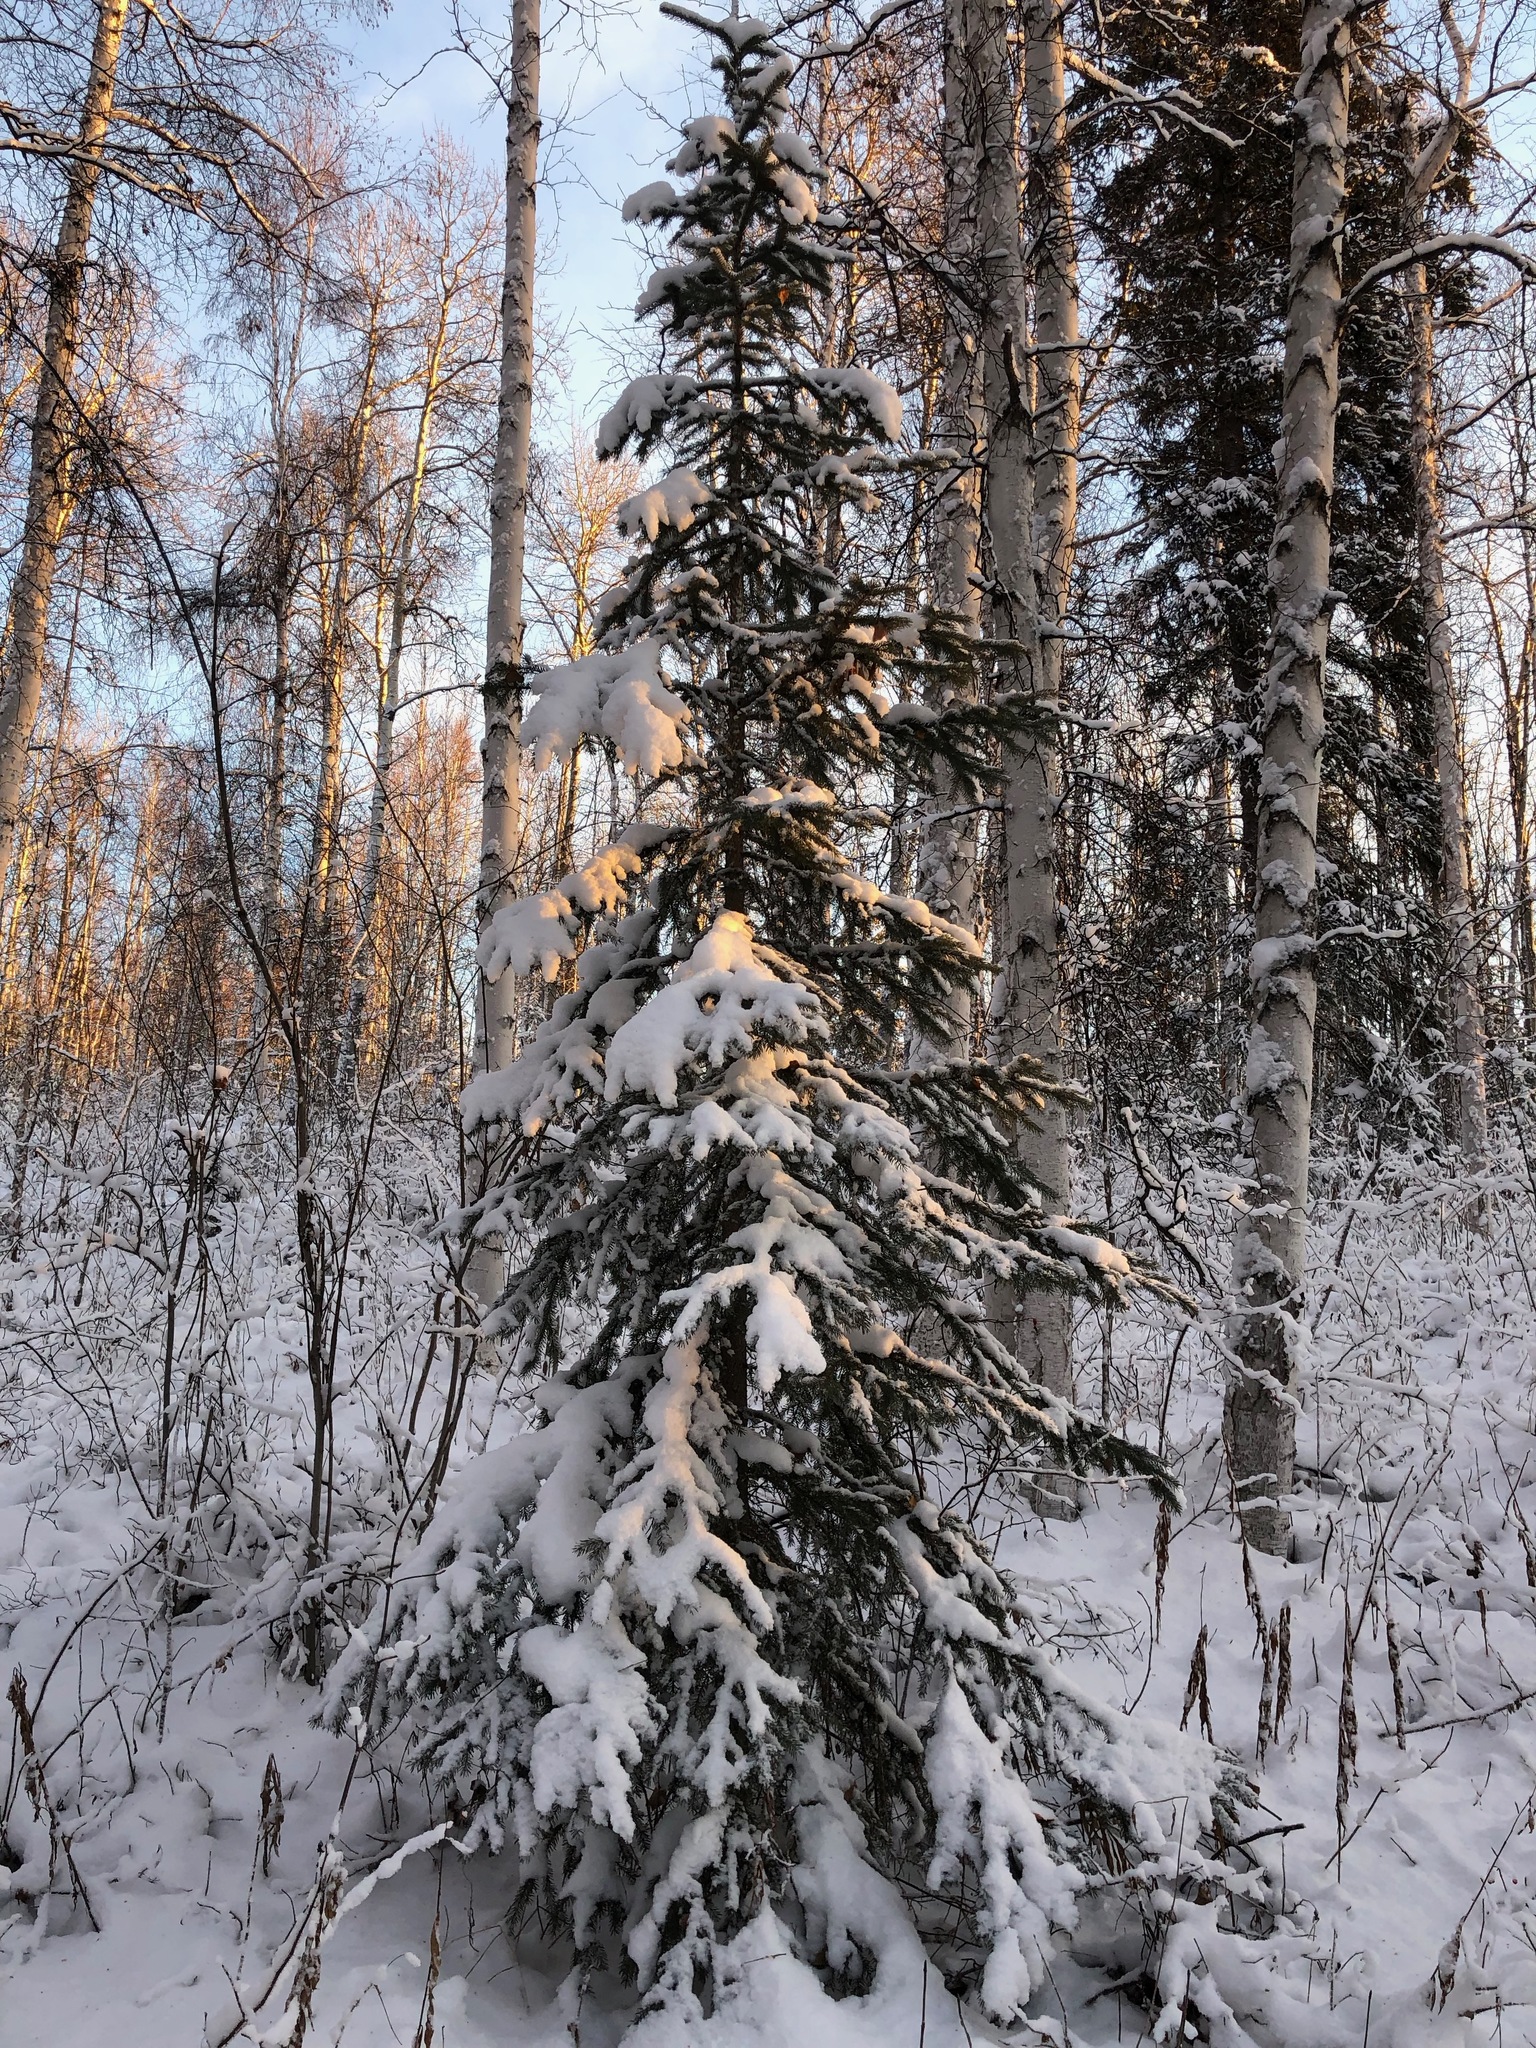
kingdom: Plantae
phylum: Tracheophyta
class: Pinopsida
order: Pinales
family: Pinaceae
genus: Picea
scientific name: Picea glauca
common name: White spruce
